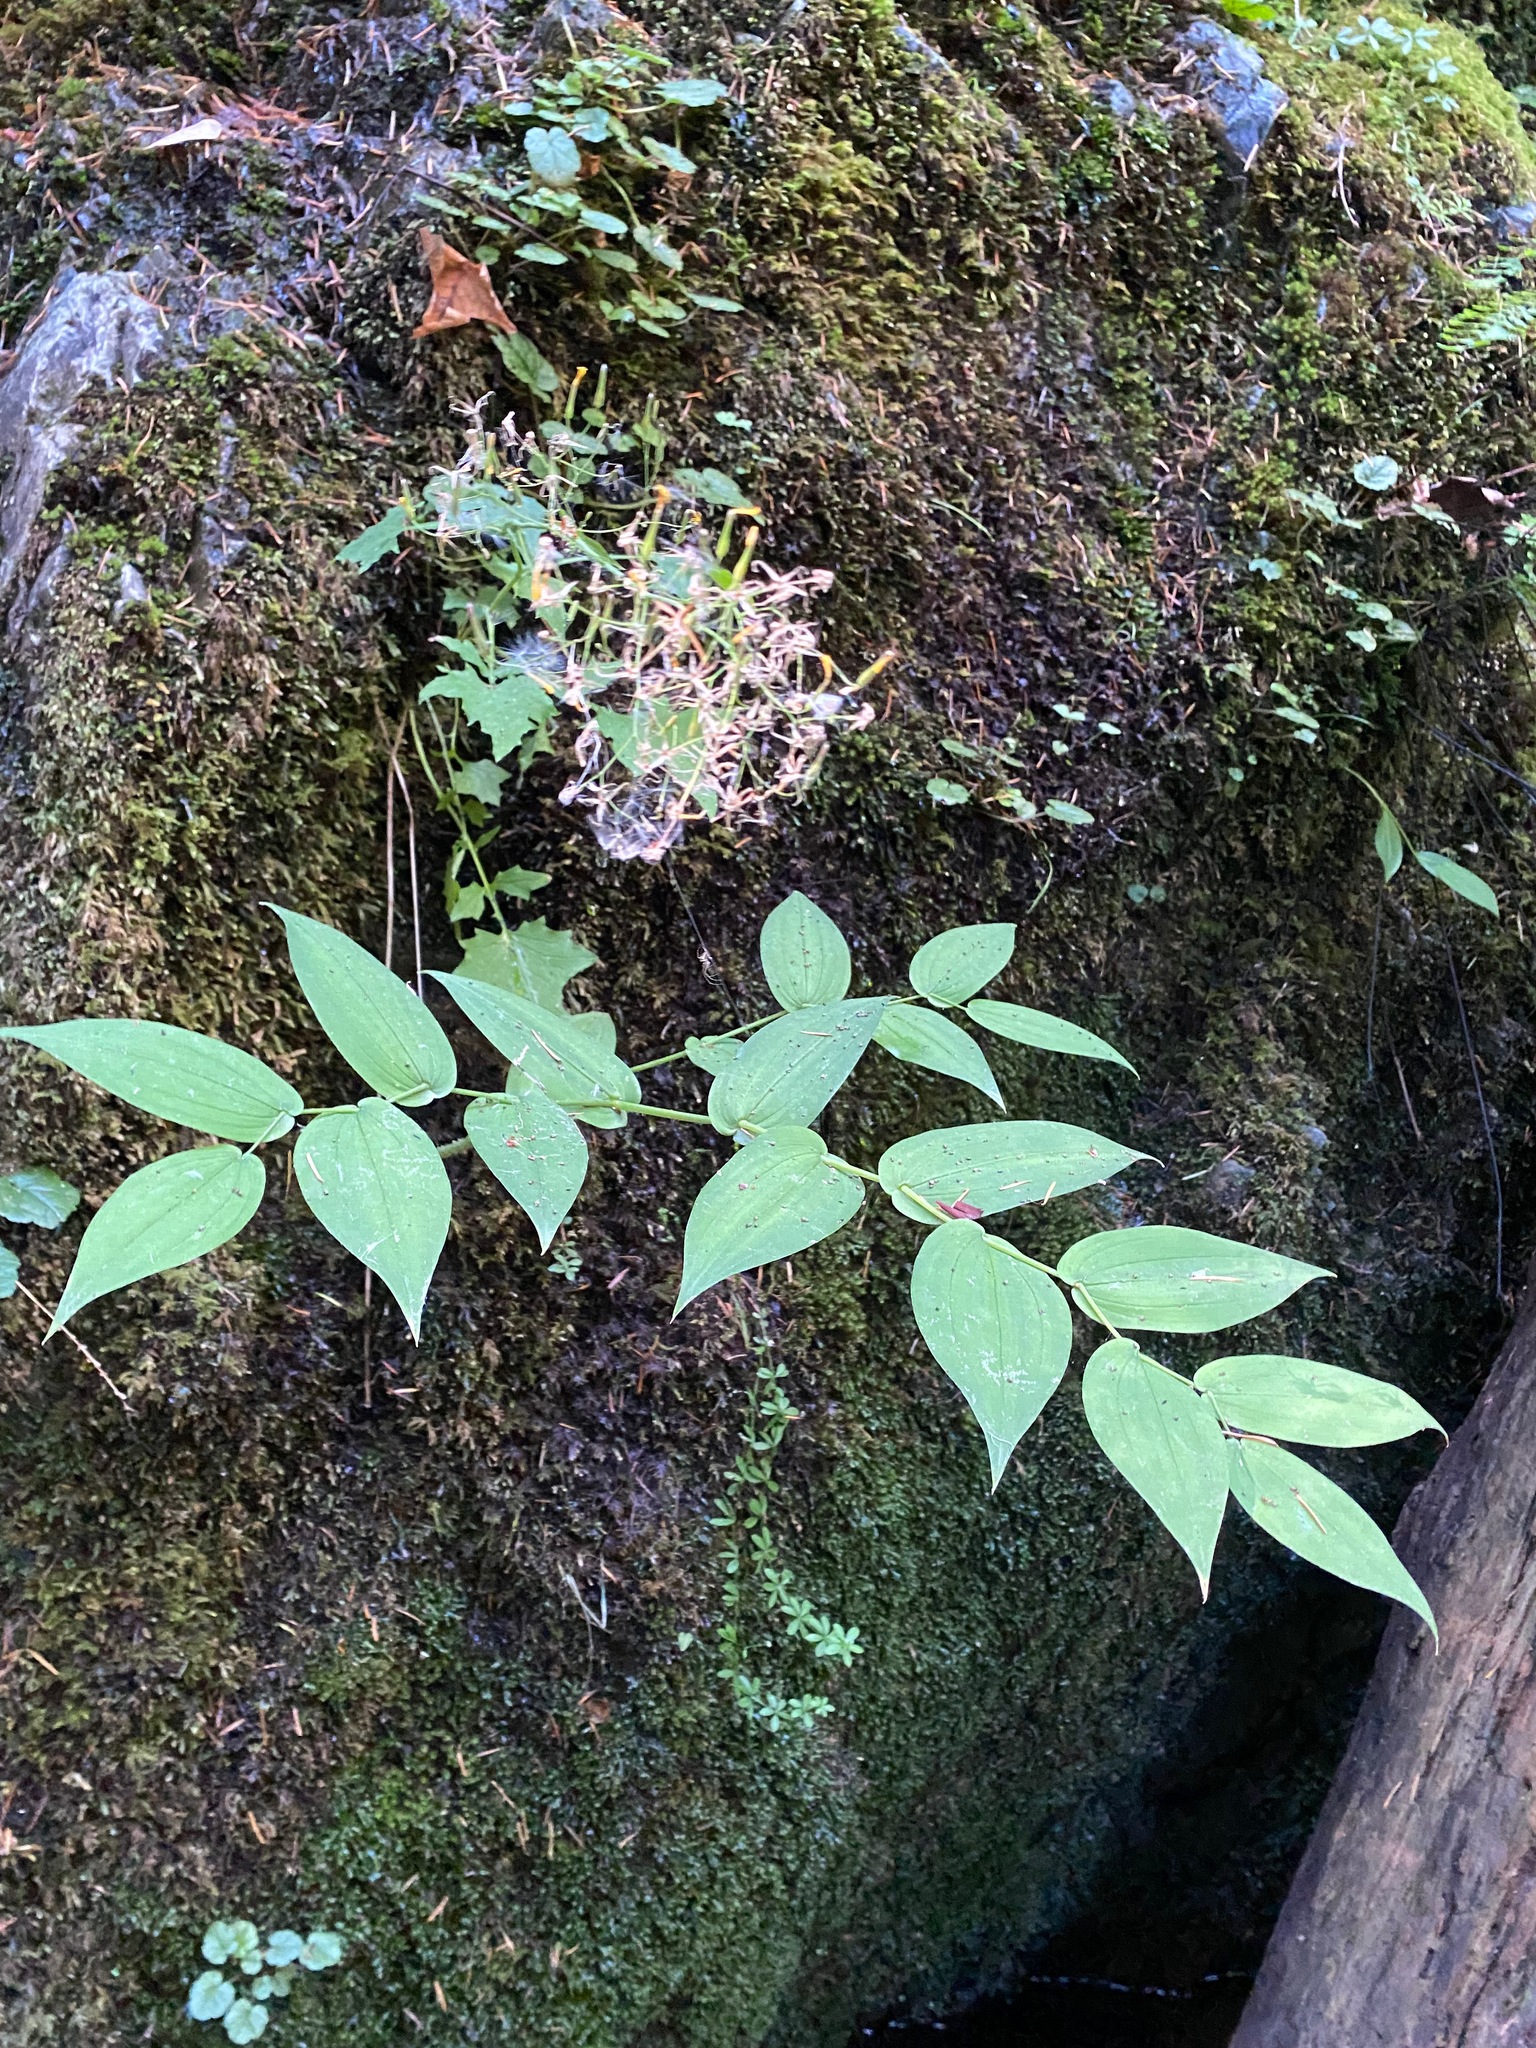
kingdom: Plantae
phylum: Tracheophyta
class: Liliopsida
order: Liliales
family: Liliaceae
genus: Streptopus
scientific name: Streptopus amplexifolius
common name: Clasp twisted stalk
